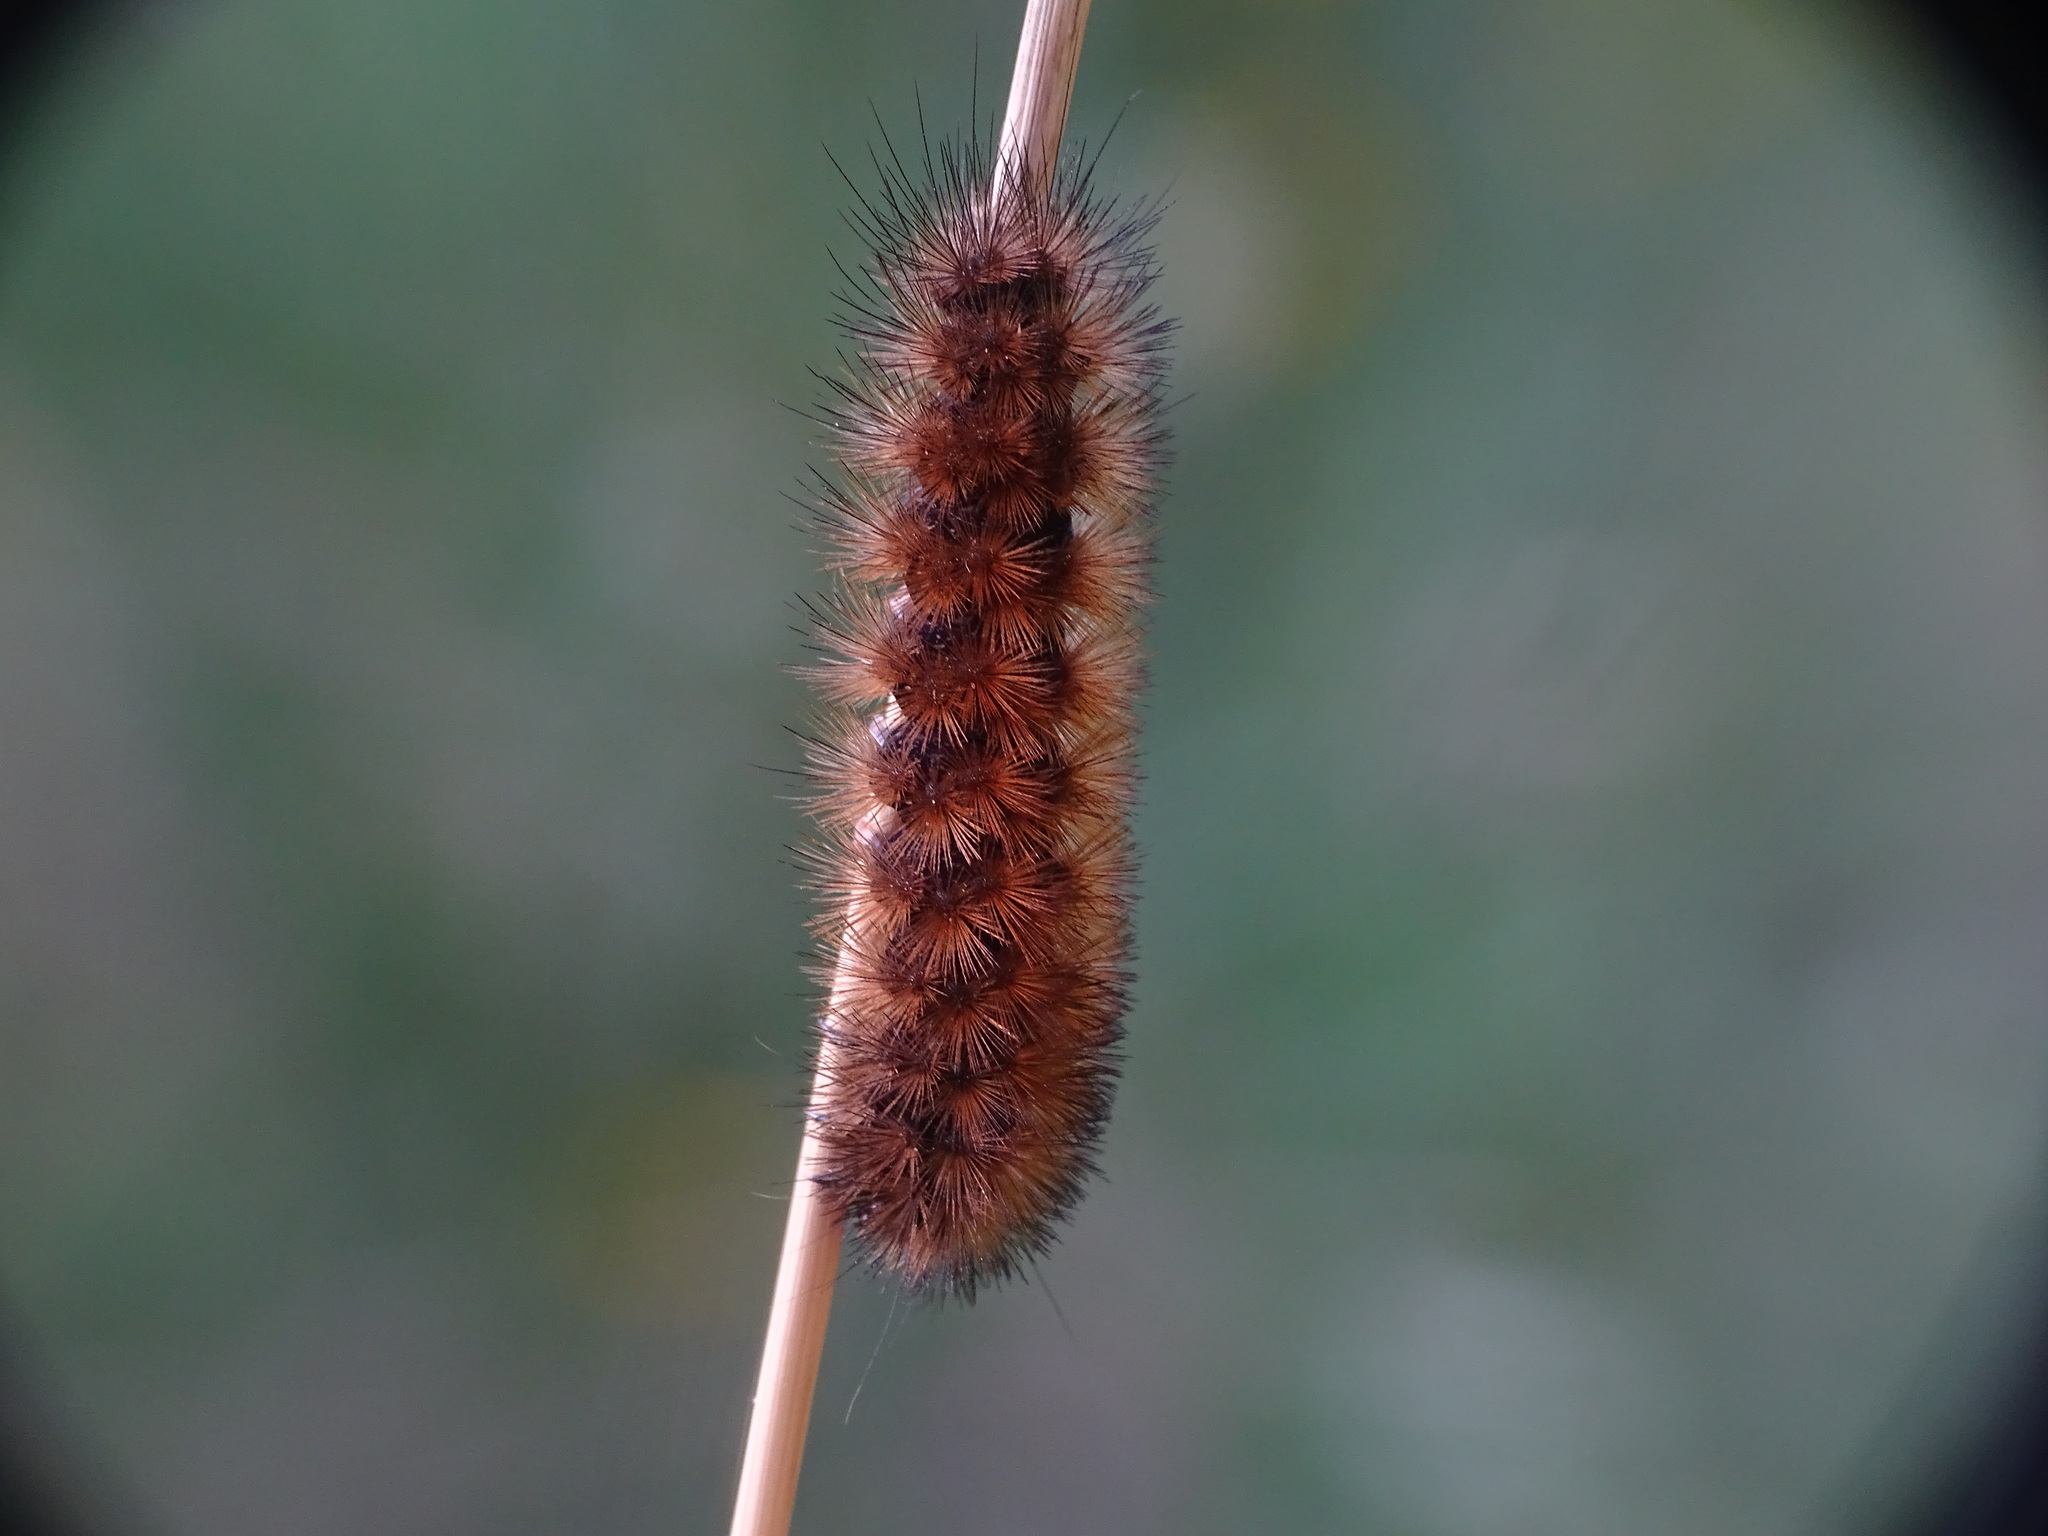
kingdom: Animalia
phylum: Arthropoda
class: Insecta
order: Lepidoptera
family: Erebidae
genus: Pyrrharctia
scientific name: Pyrrharctia isabella
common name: Isabella tiger moth
